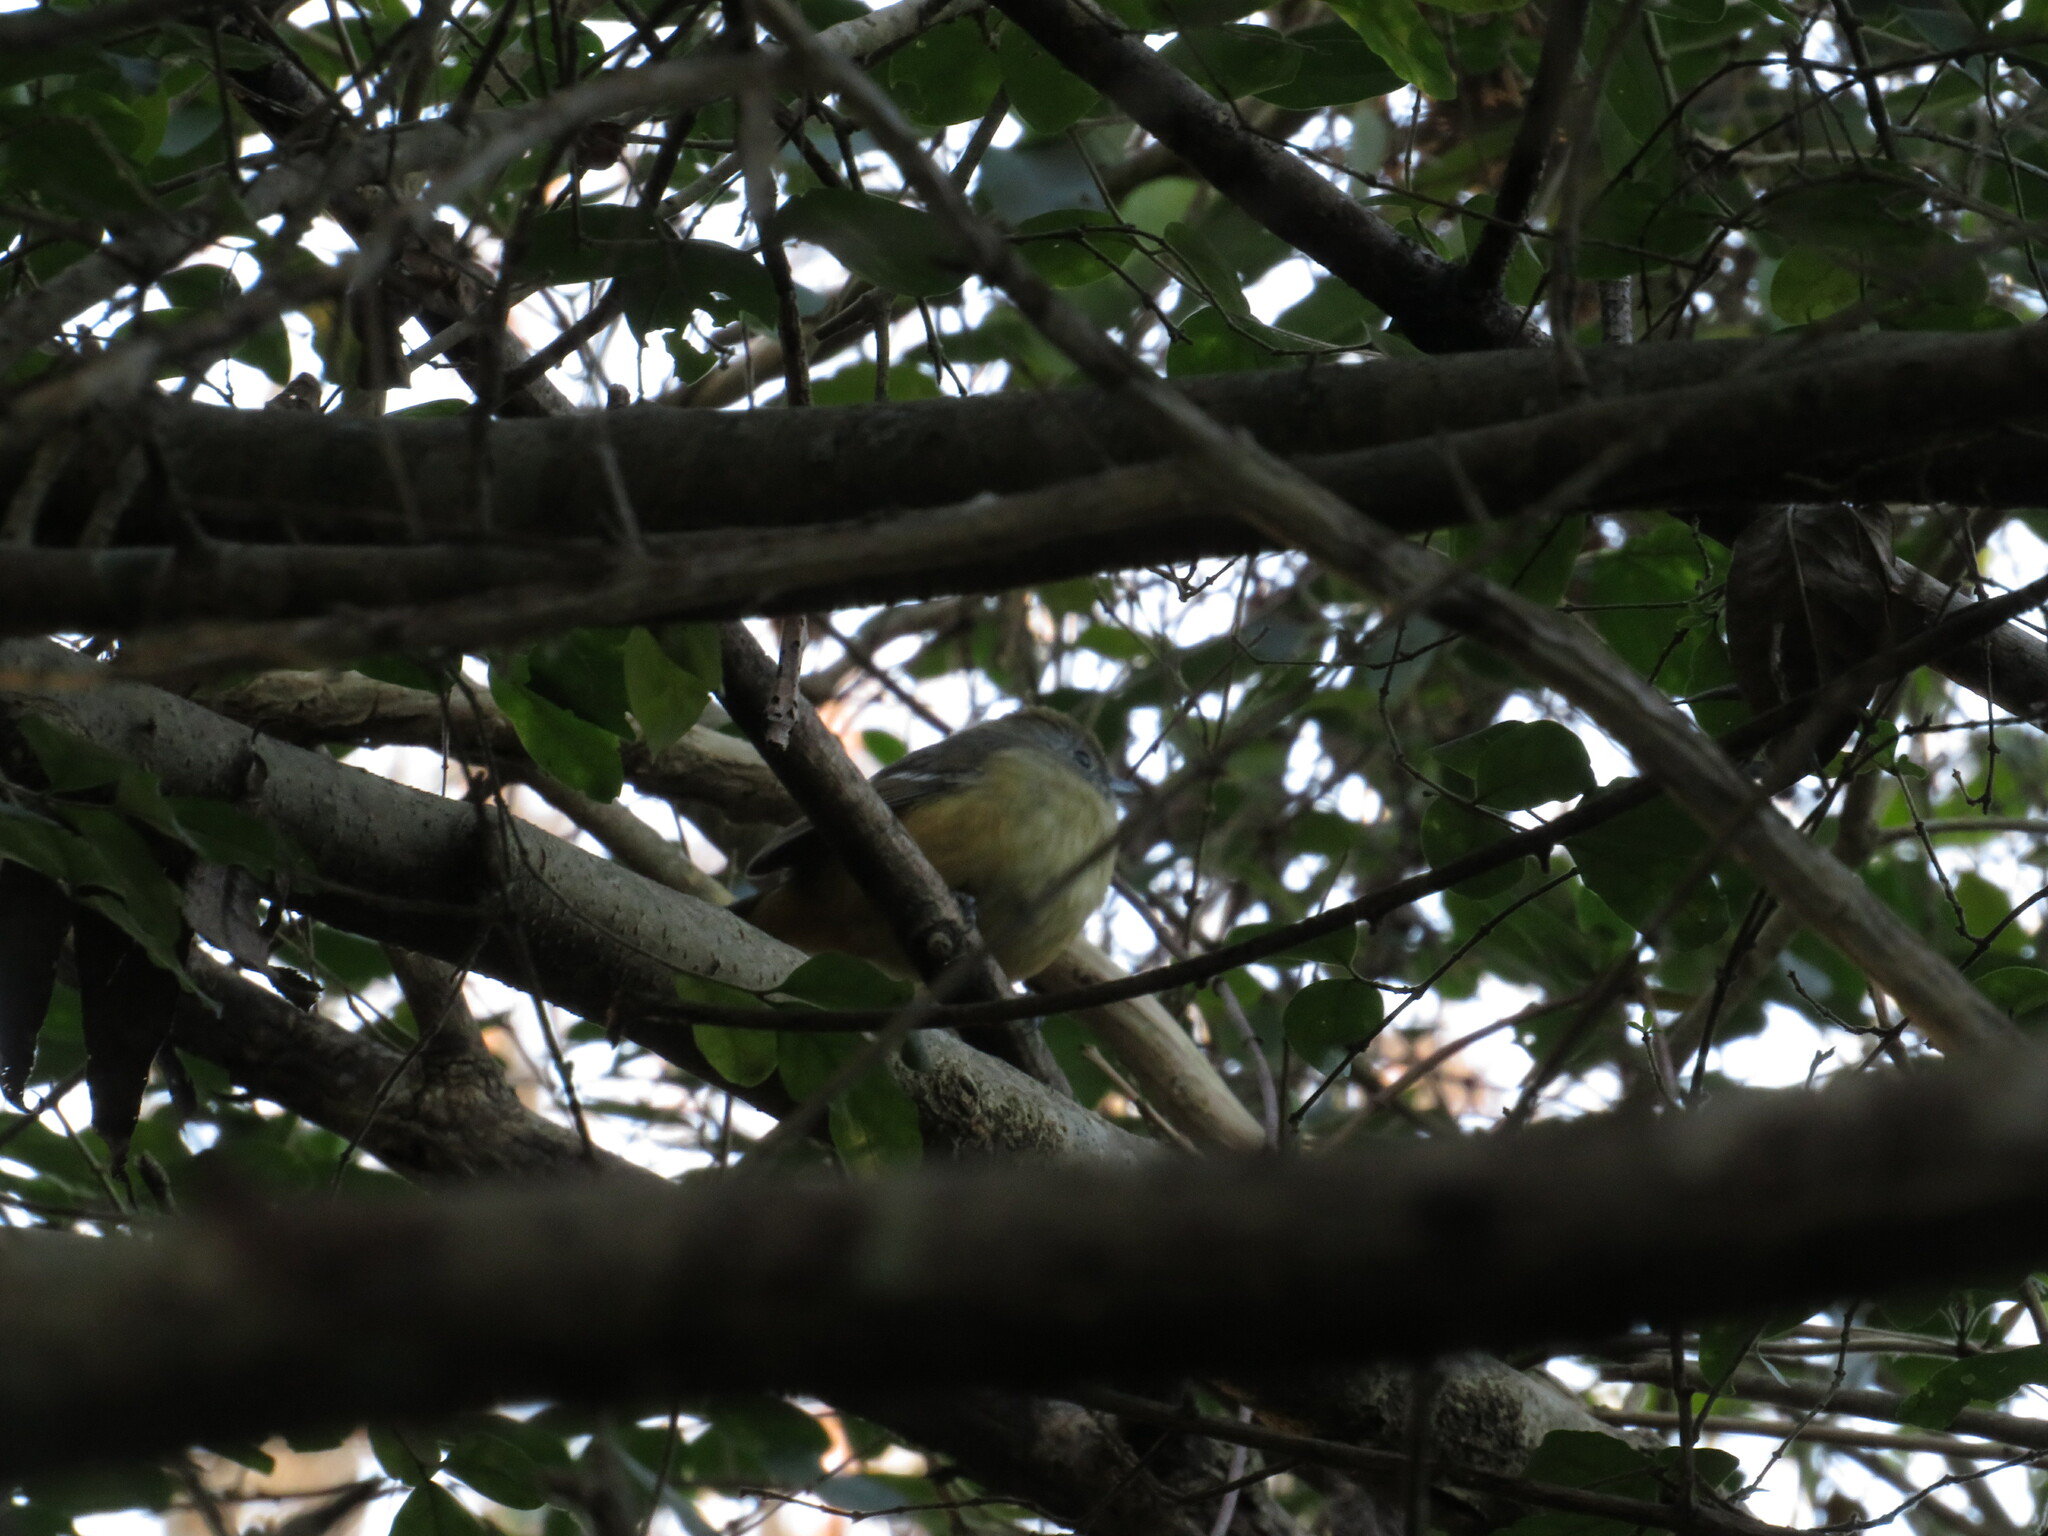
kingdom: Animalia
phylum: Chordata
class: Aves
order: Passeriformes
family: Thamnophilidae
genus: Thamnophilus
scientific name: Thamnophilus caerulescens
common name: Variable antshrike
